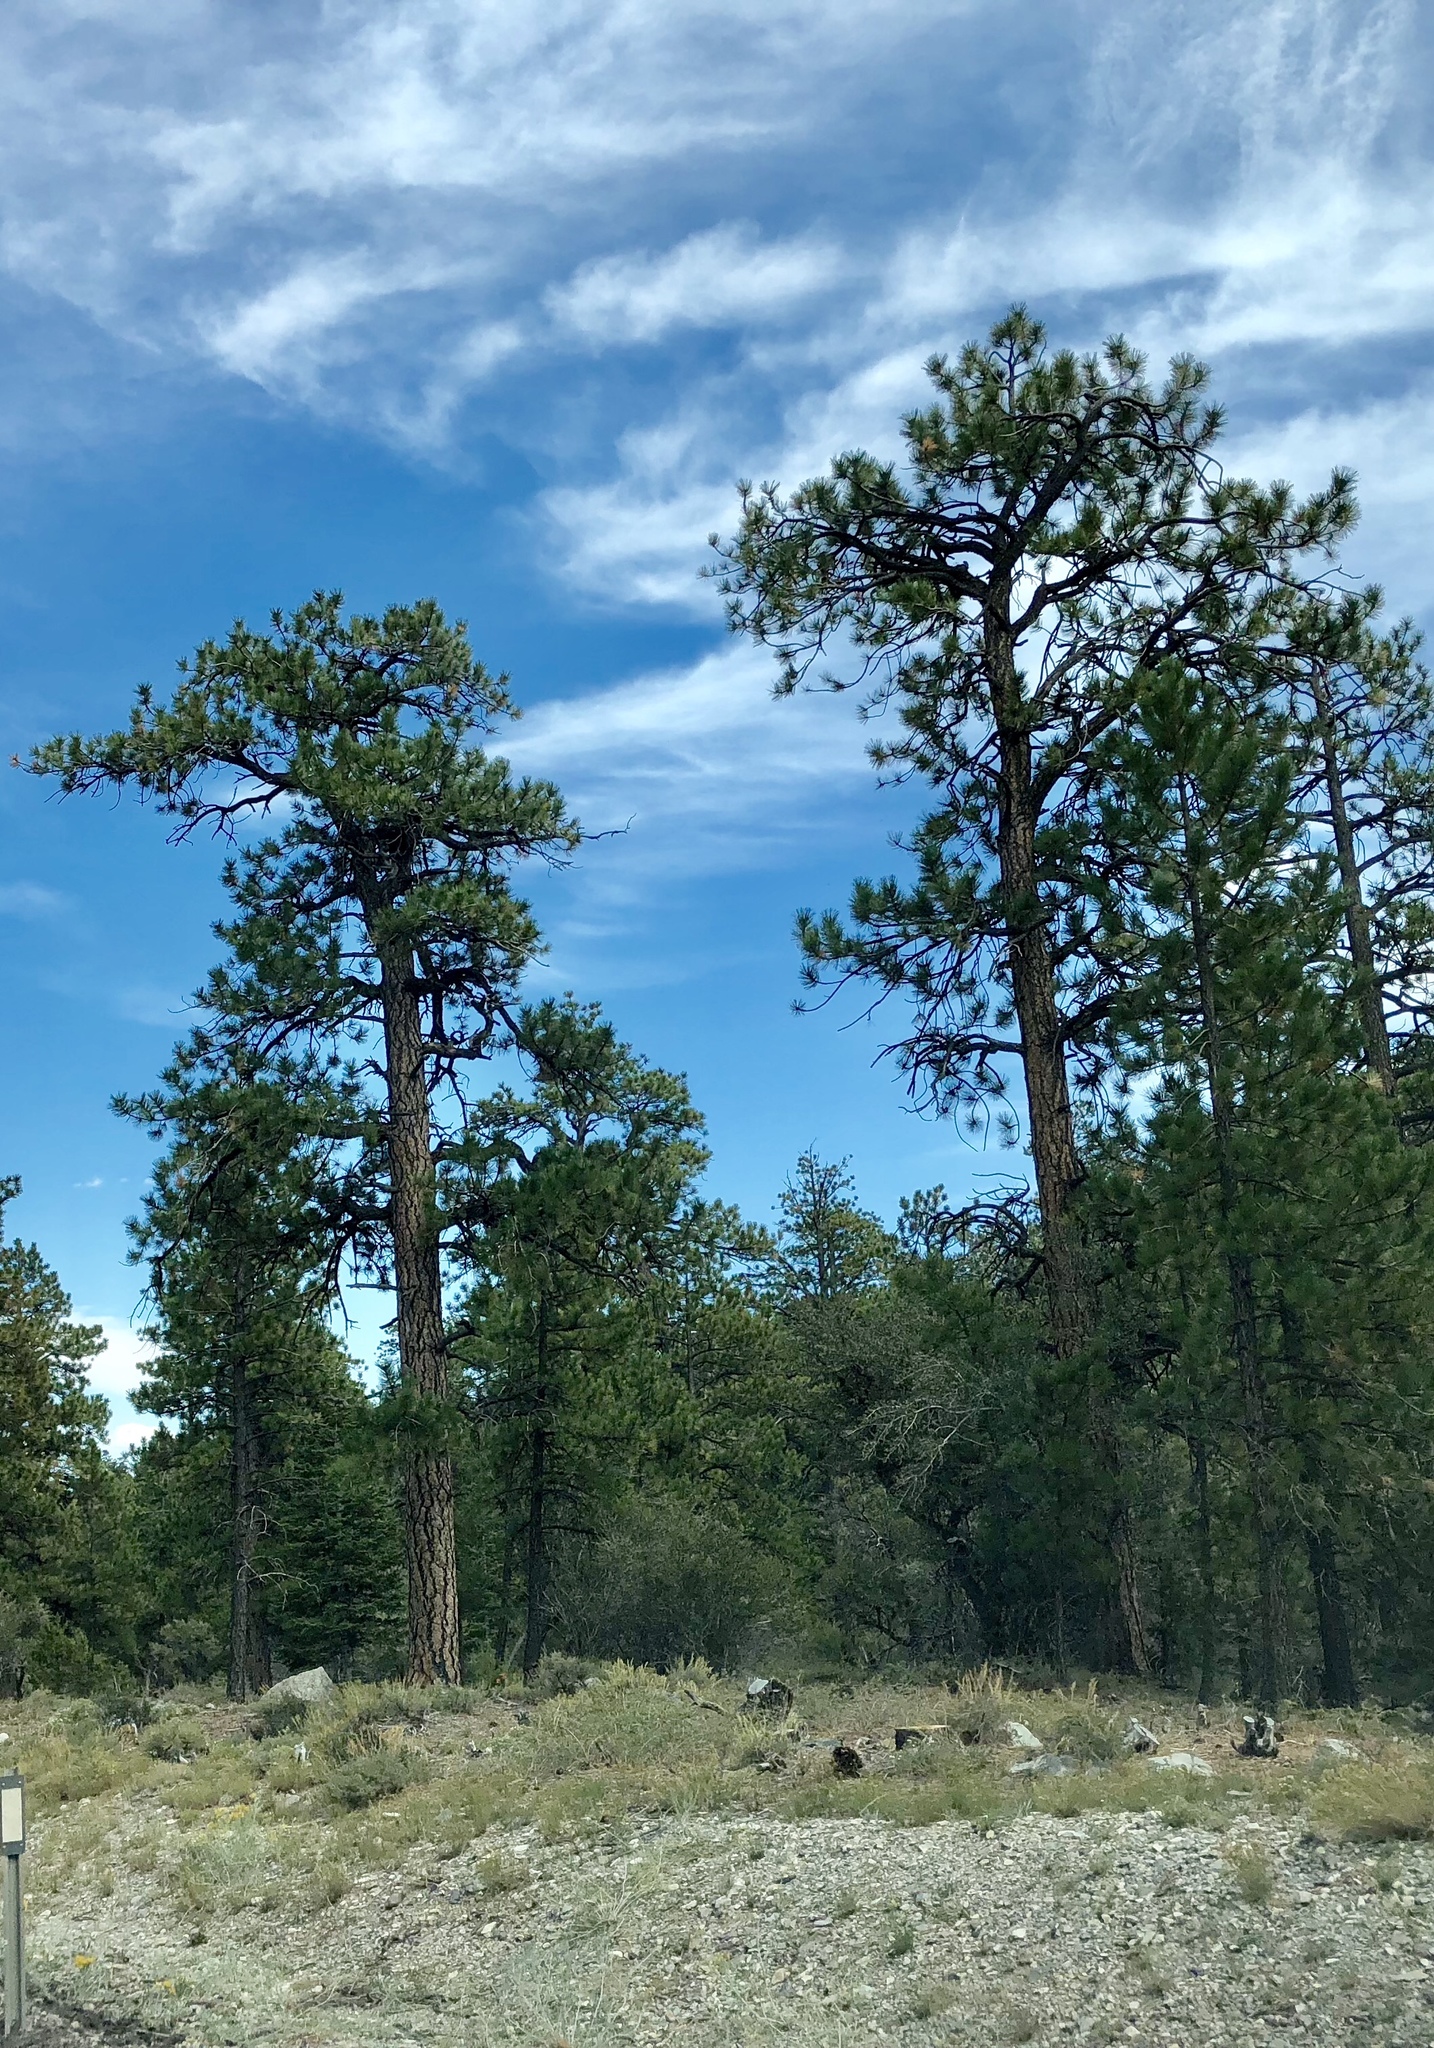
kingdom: Plantae
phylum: Tracheophyta
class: Pinopsida
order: Pinales
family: Pinaceae
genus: Pinus
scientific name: Pinus ponderosa
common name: Western yellow-pine
